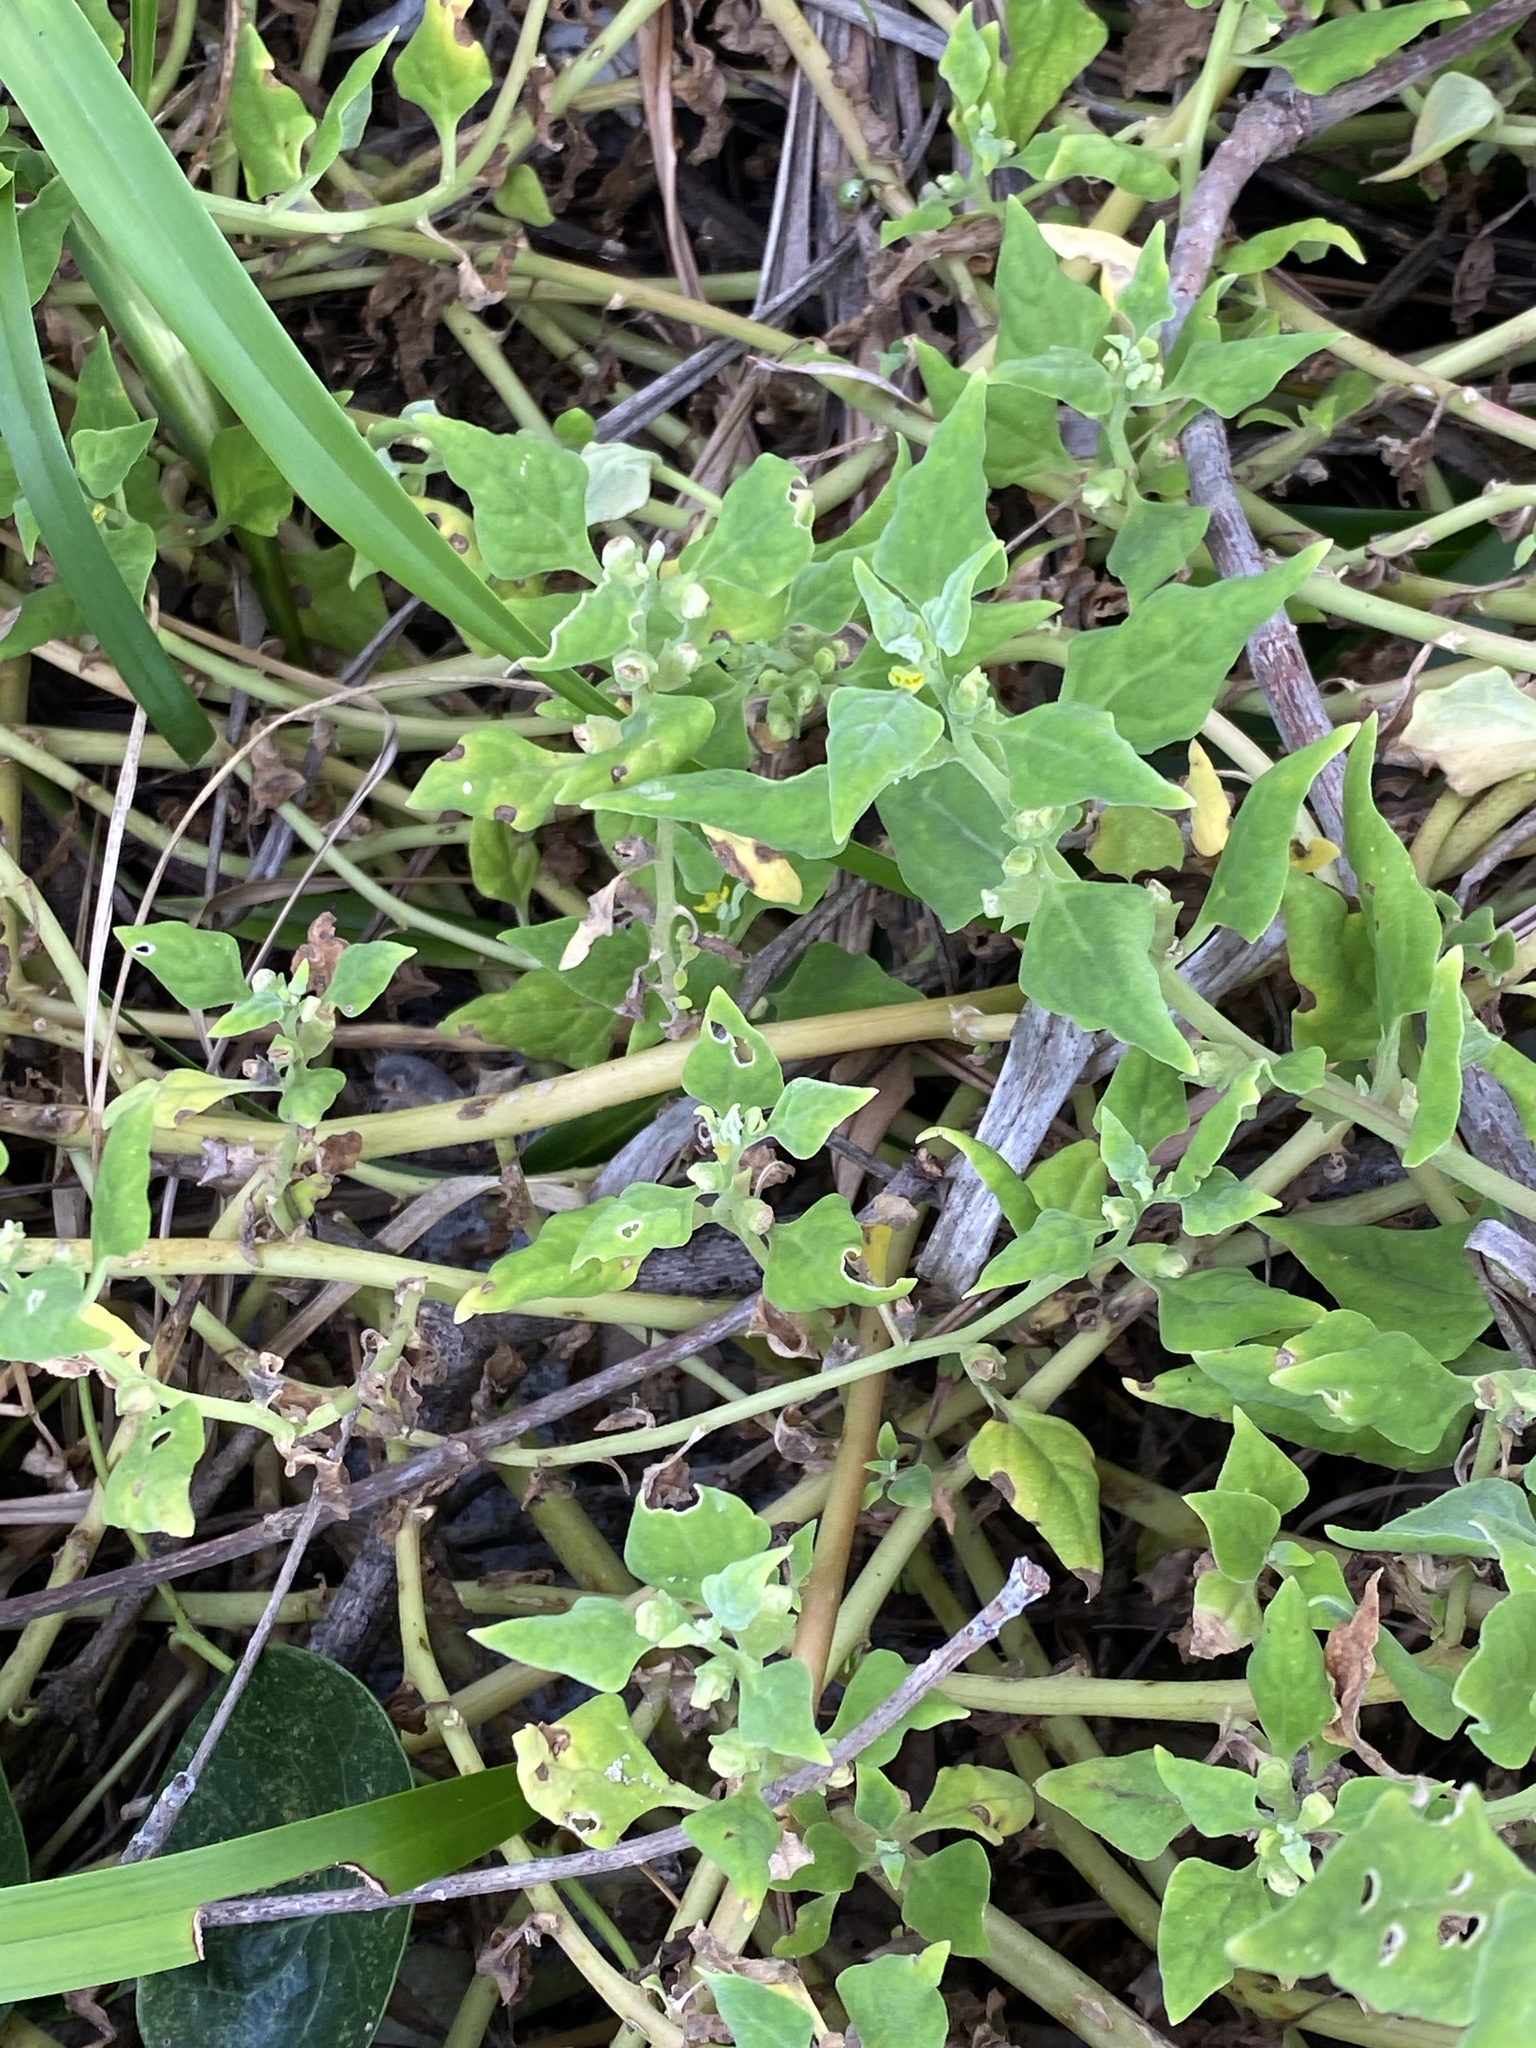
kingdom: Plantae
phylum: Tracheophyta
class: Magnoliopsida
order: Caryophyllales
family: Aizoaceae
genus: Tetragonia
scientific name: Tetragonia tetragonoides
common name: New zealand-spinach
